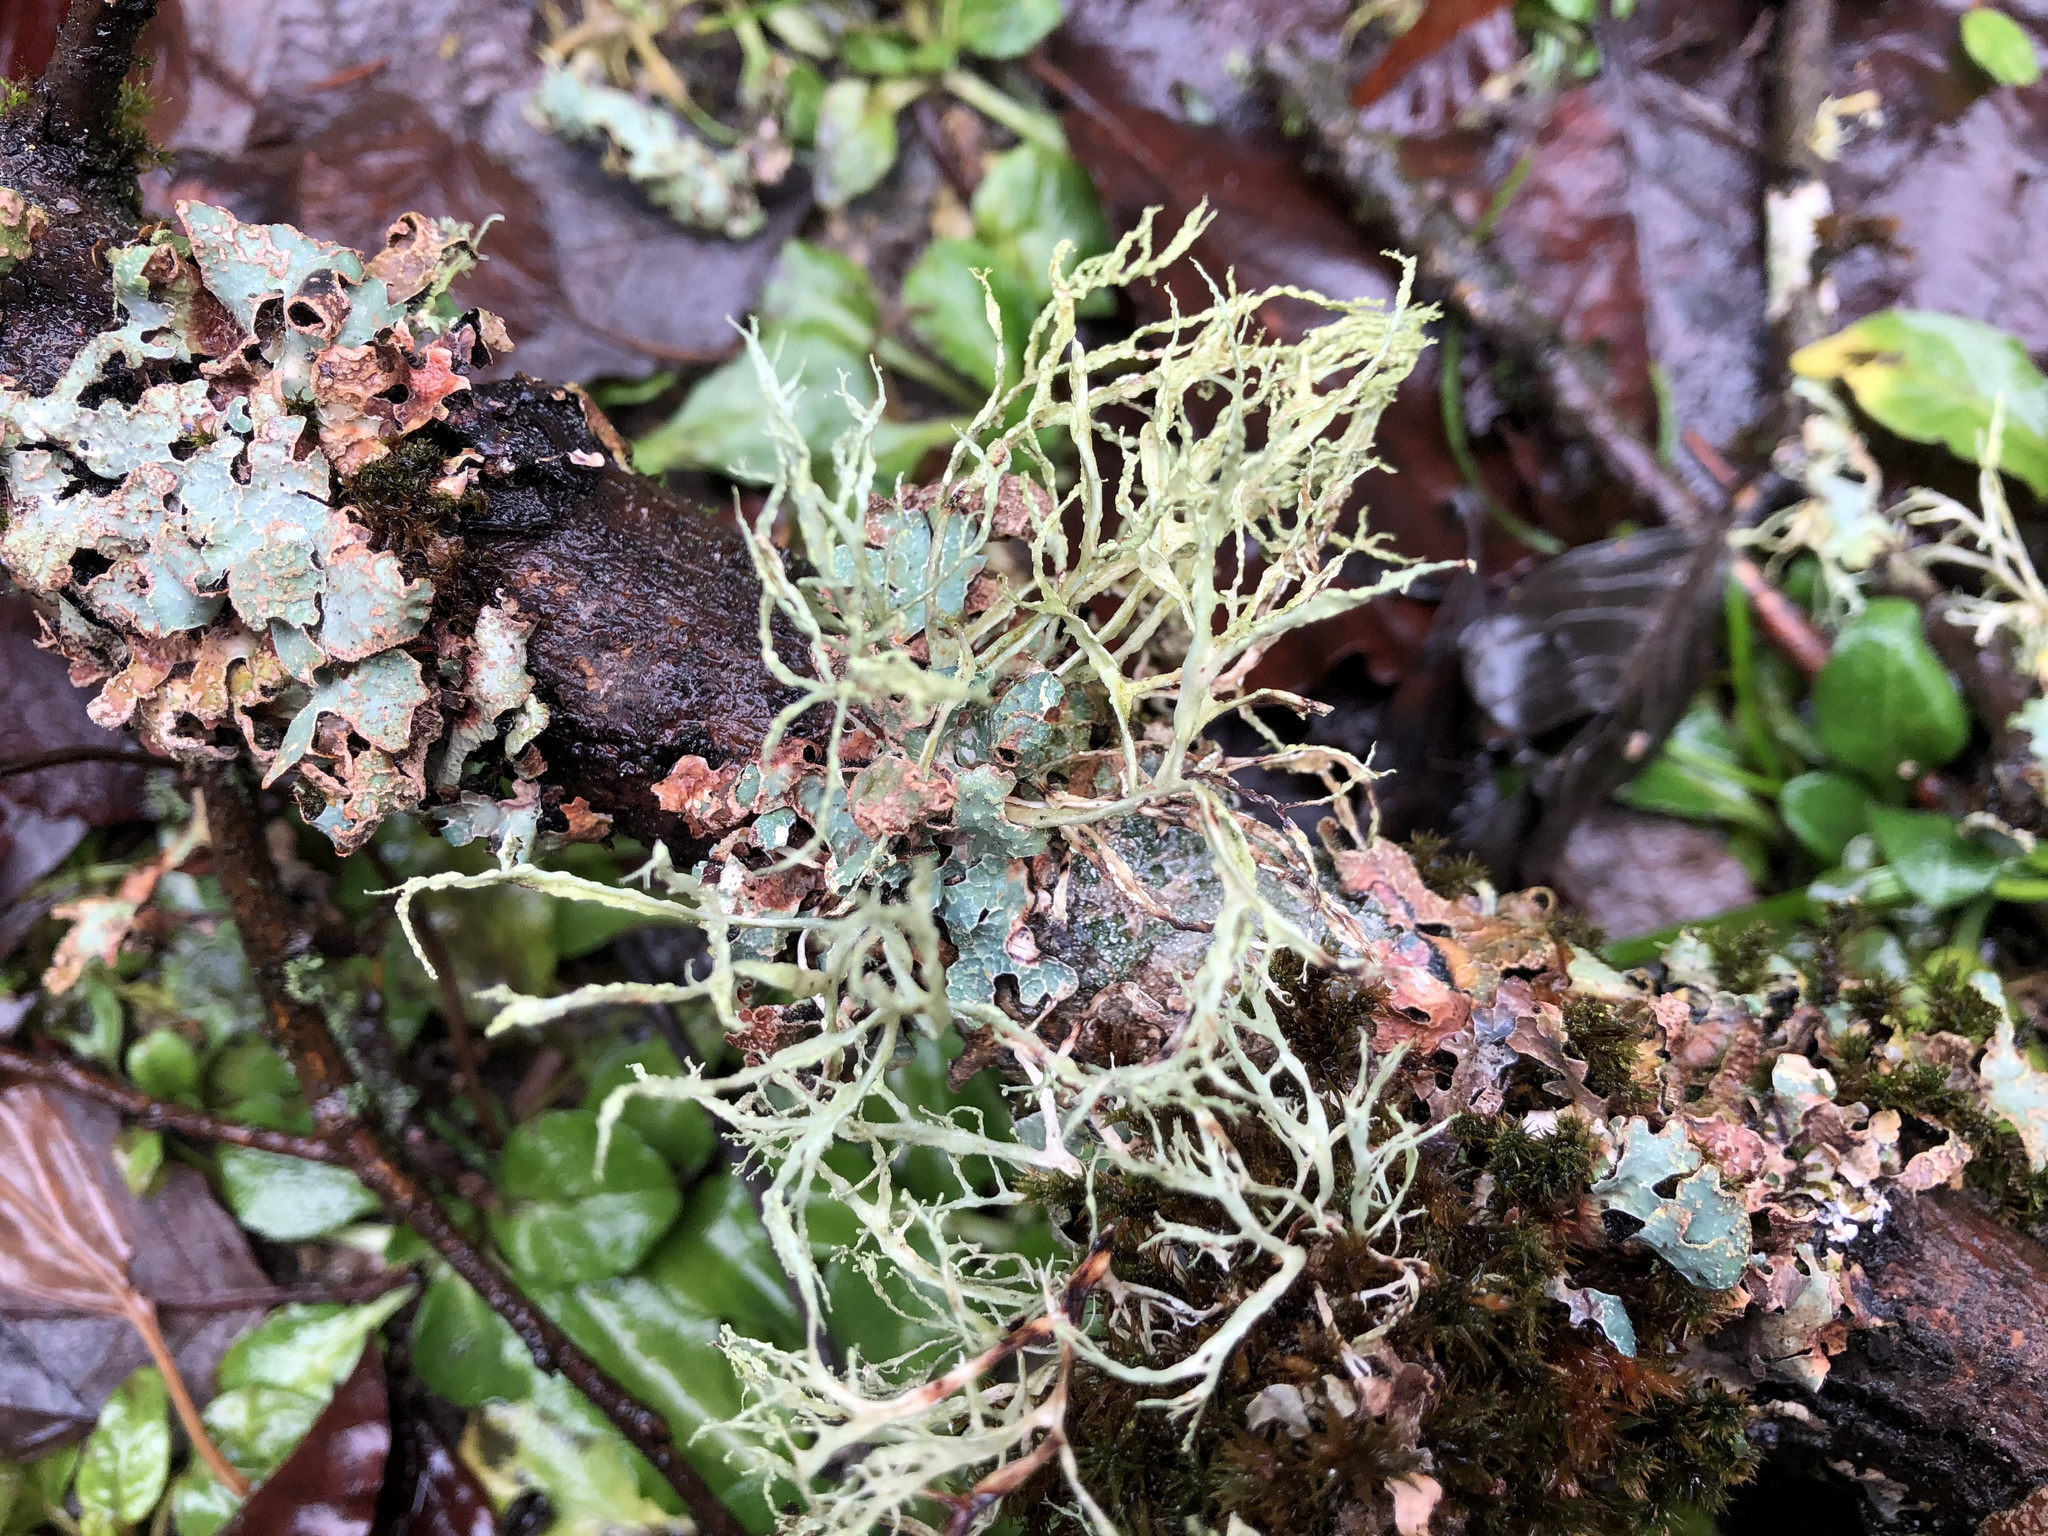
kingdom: Fungi
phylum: Ascomycota
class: Lecanoromycetes
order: Lecanorales
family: Ramalinaceae
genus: Ramalina
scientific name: Ramalina farinacea
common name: Farinose cartilage lichen
